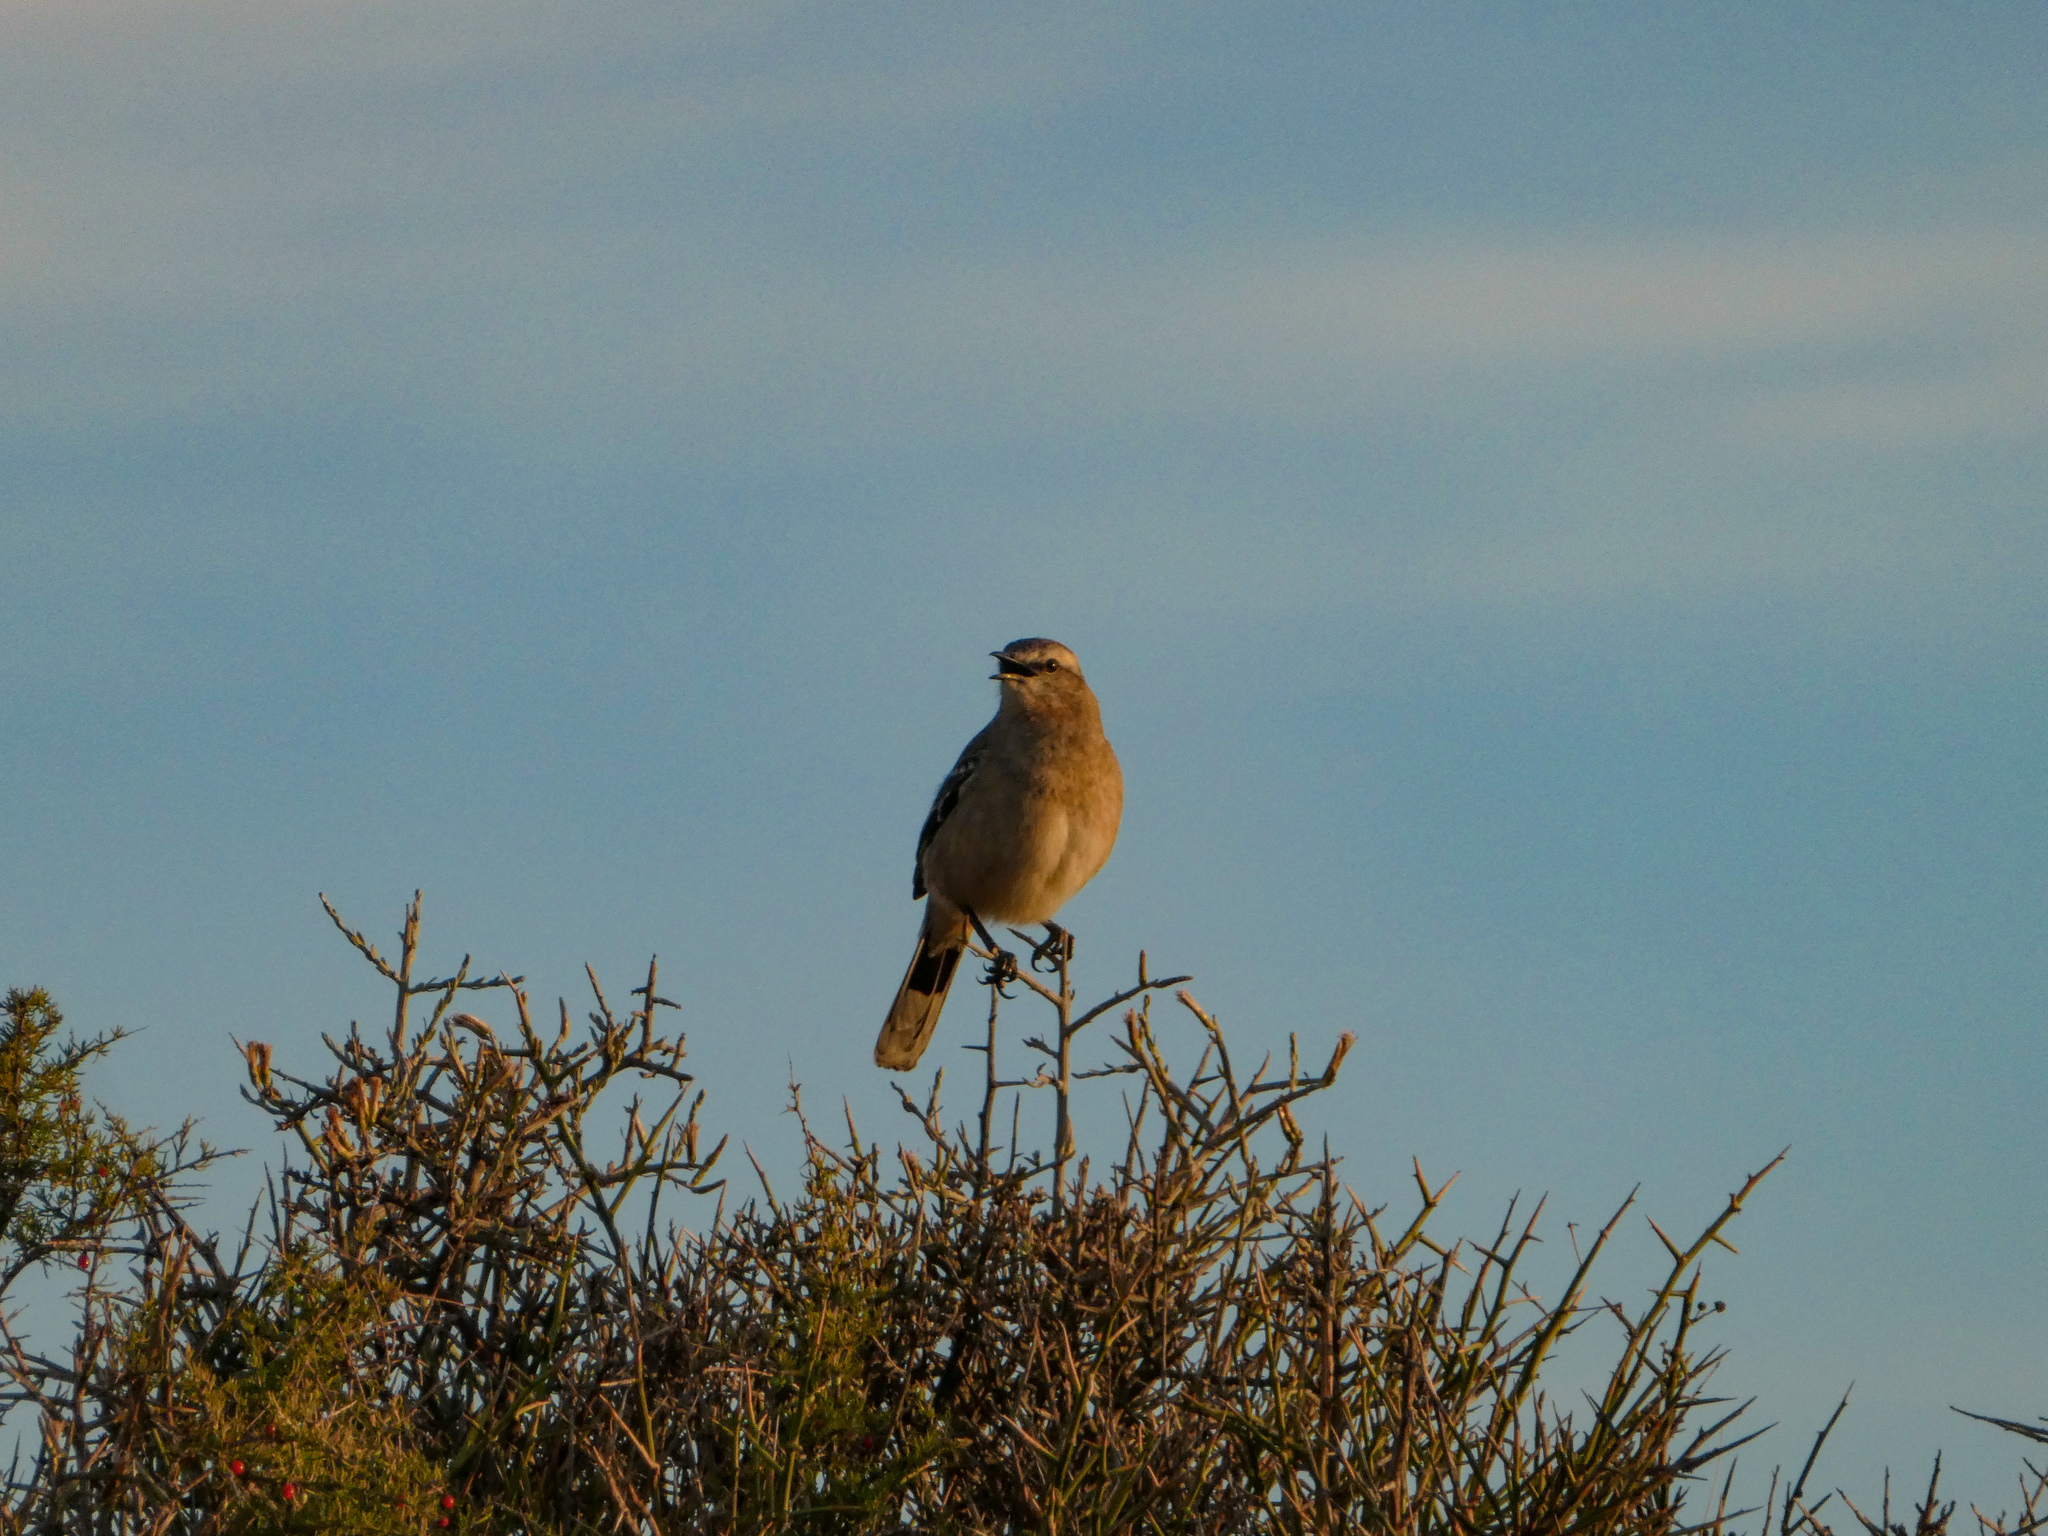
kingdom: Animalia
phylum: Chordata
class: Aves
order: Passeriformes
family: Mimidae
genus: Mimus
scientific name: Mimus patagonicus
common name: Patagonian mockingbird
